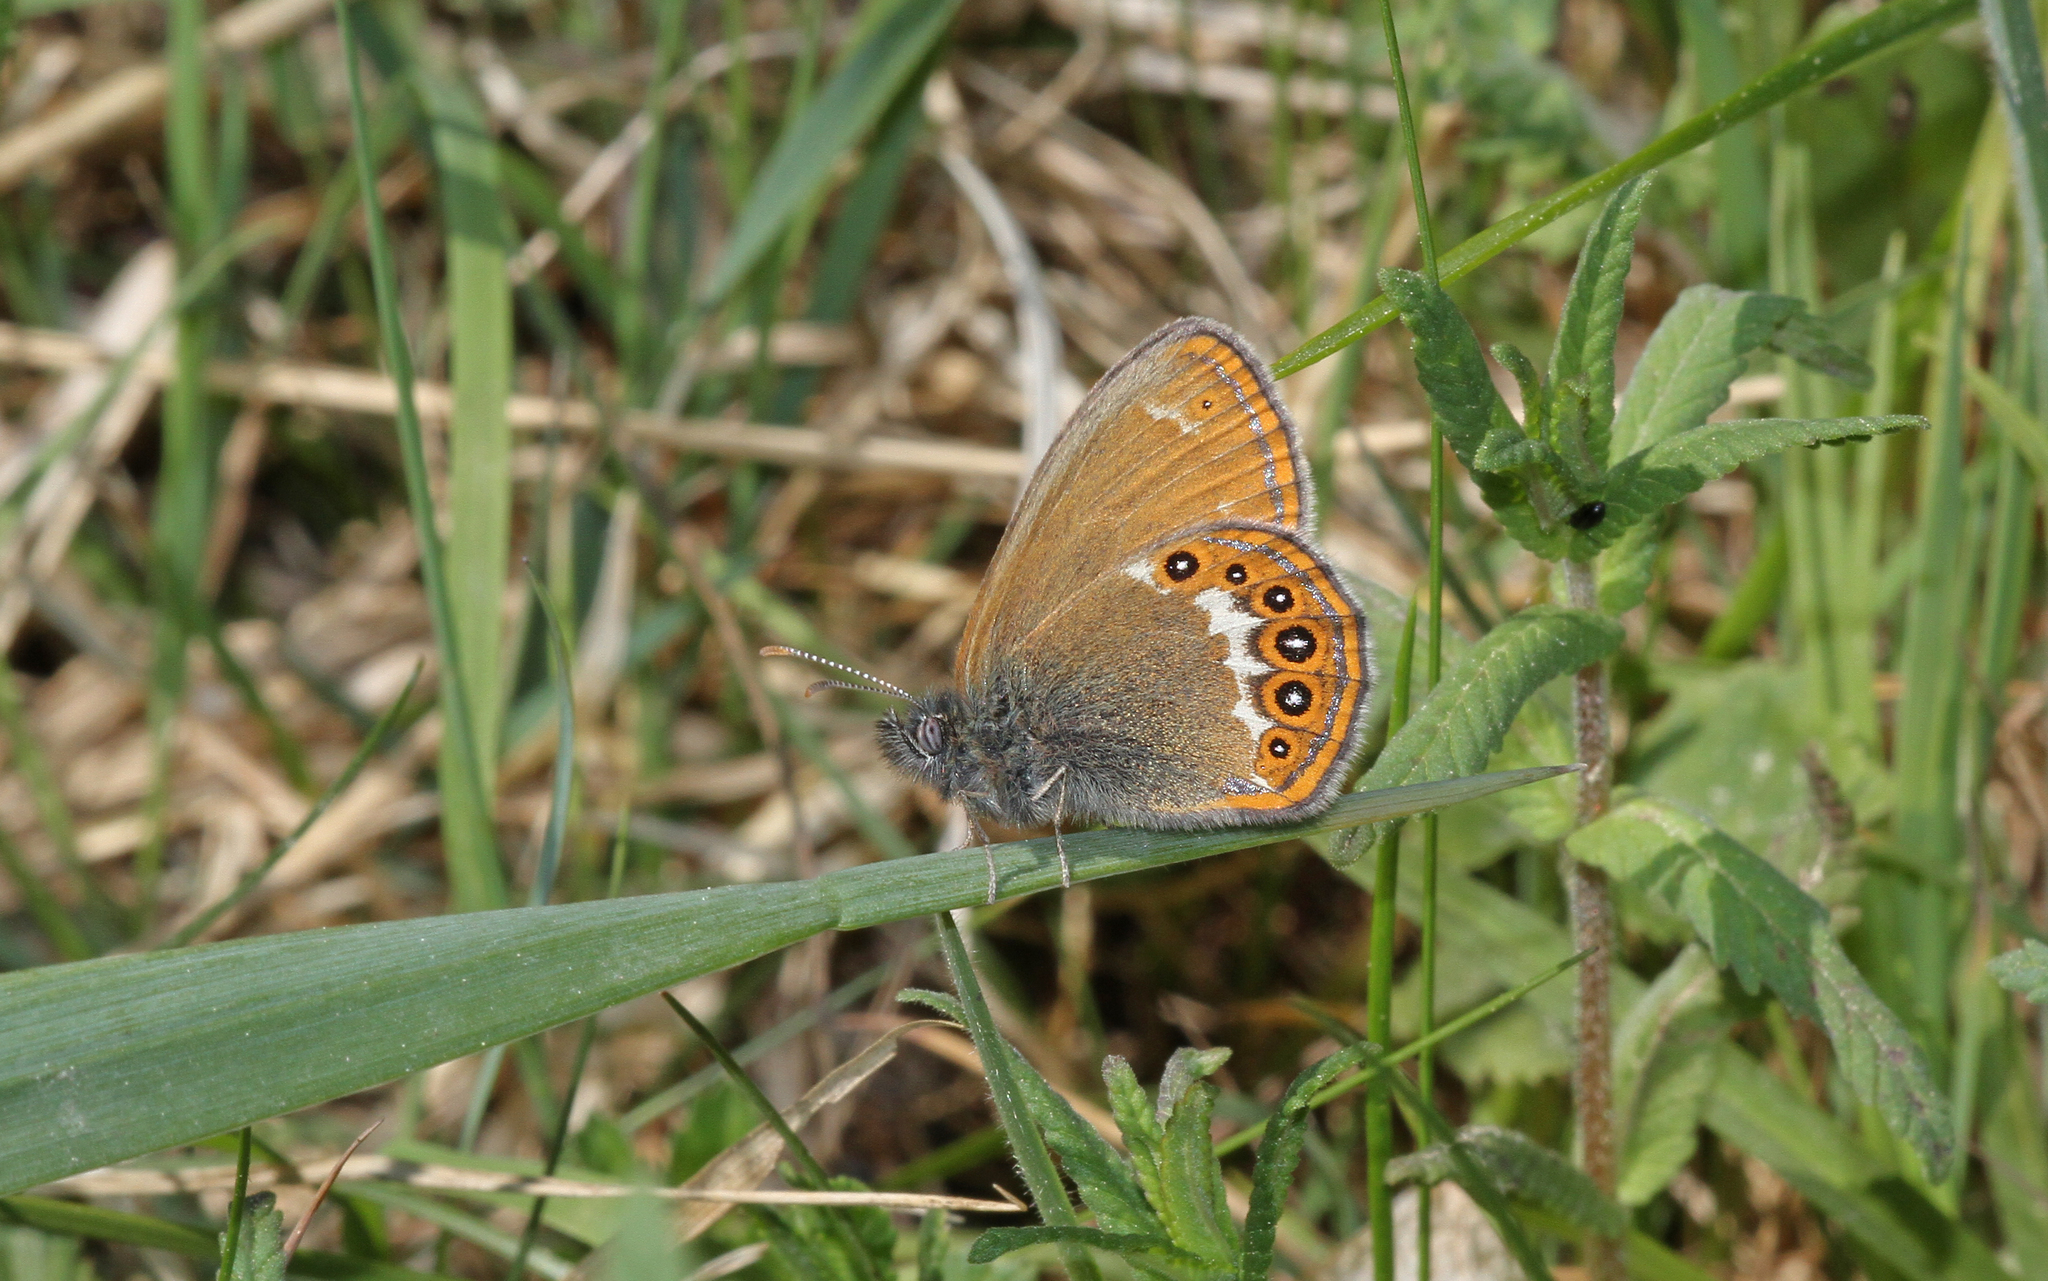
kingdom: Animalia
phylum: Arthropoda
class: Insecta
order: Lepidoptera
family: Nymphalidae
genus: Coenonympha
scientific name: Coenonympha hero
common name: Scarce heath
